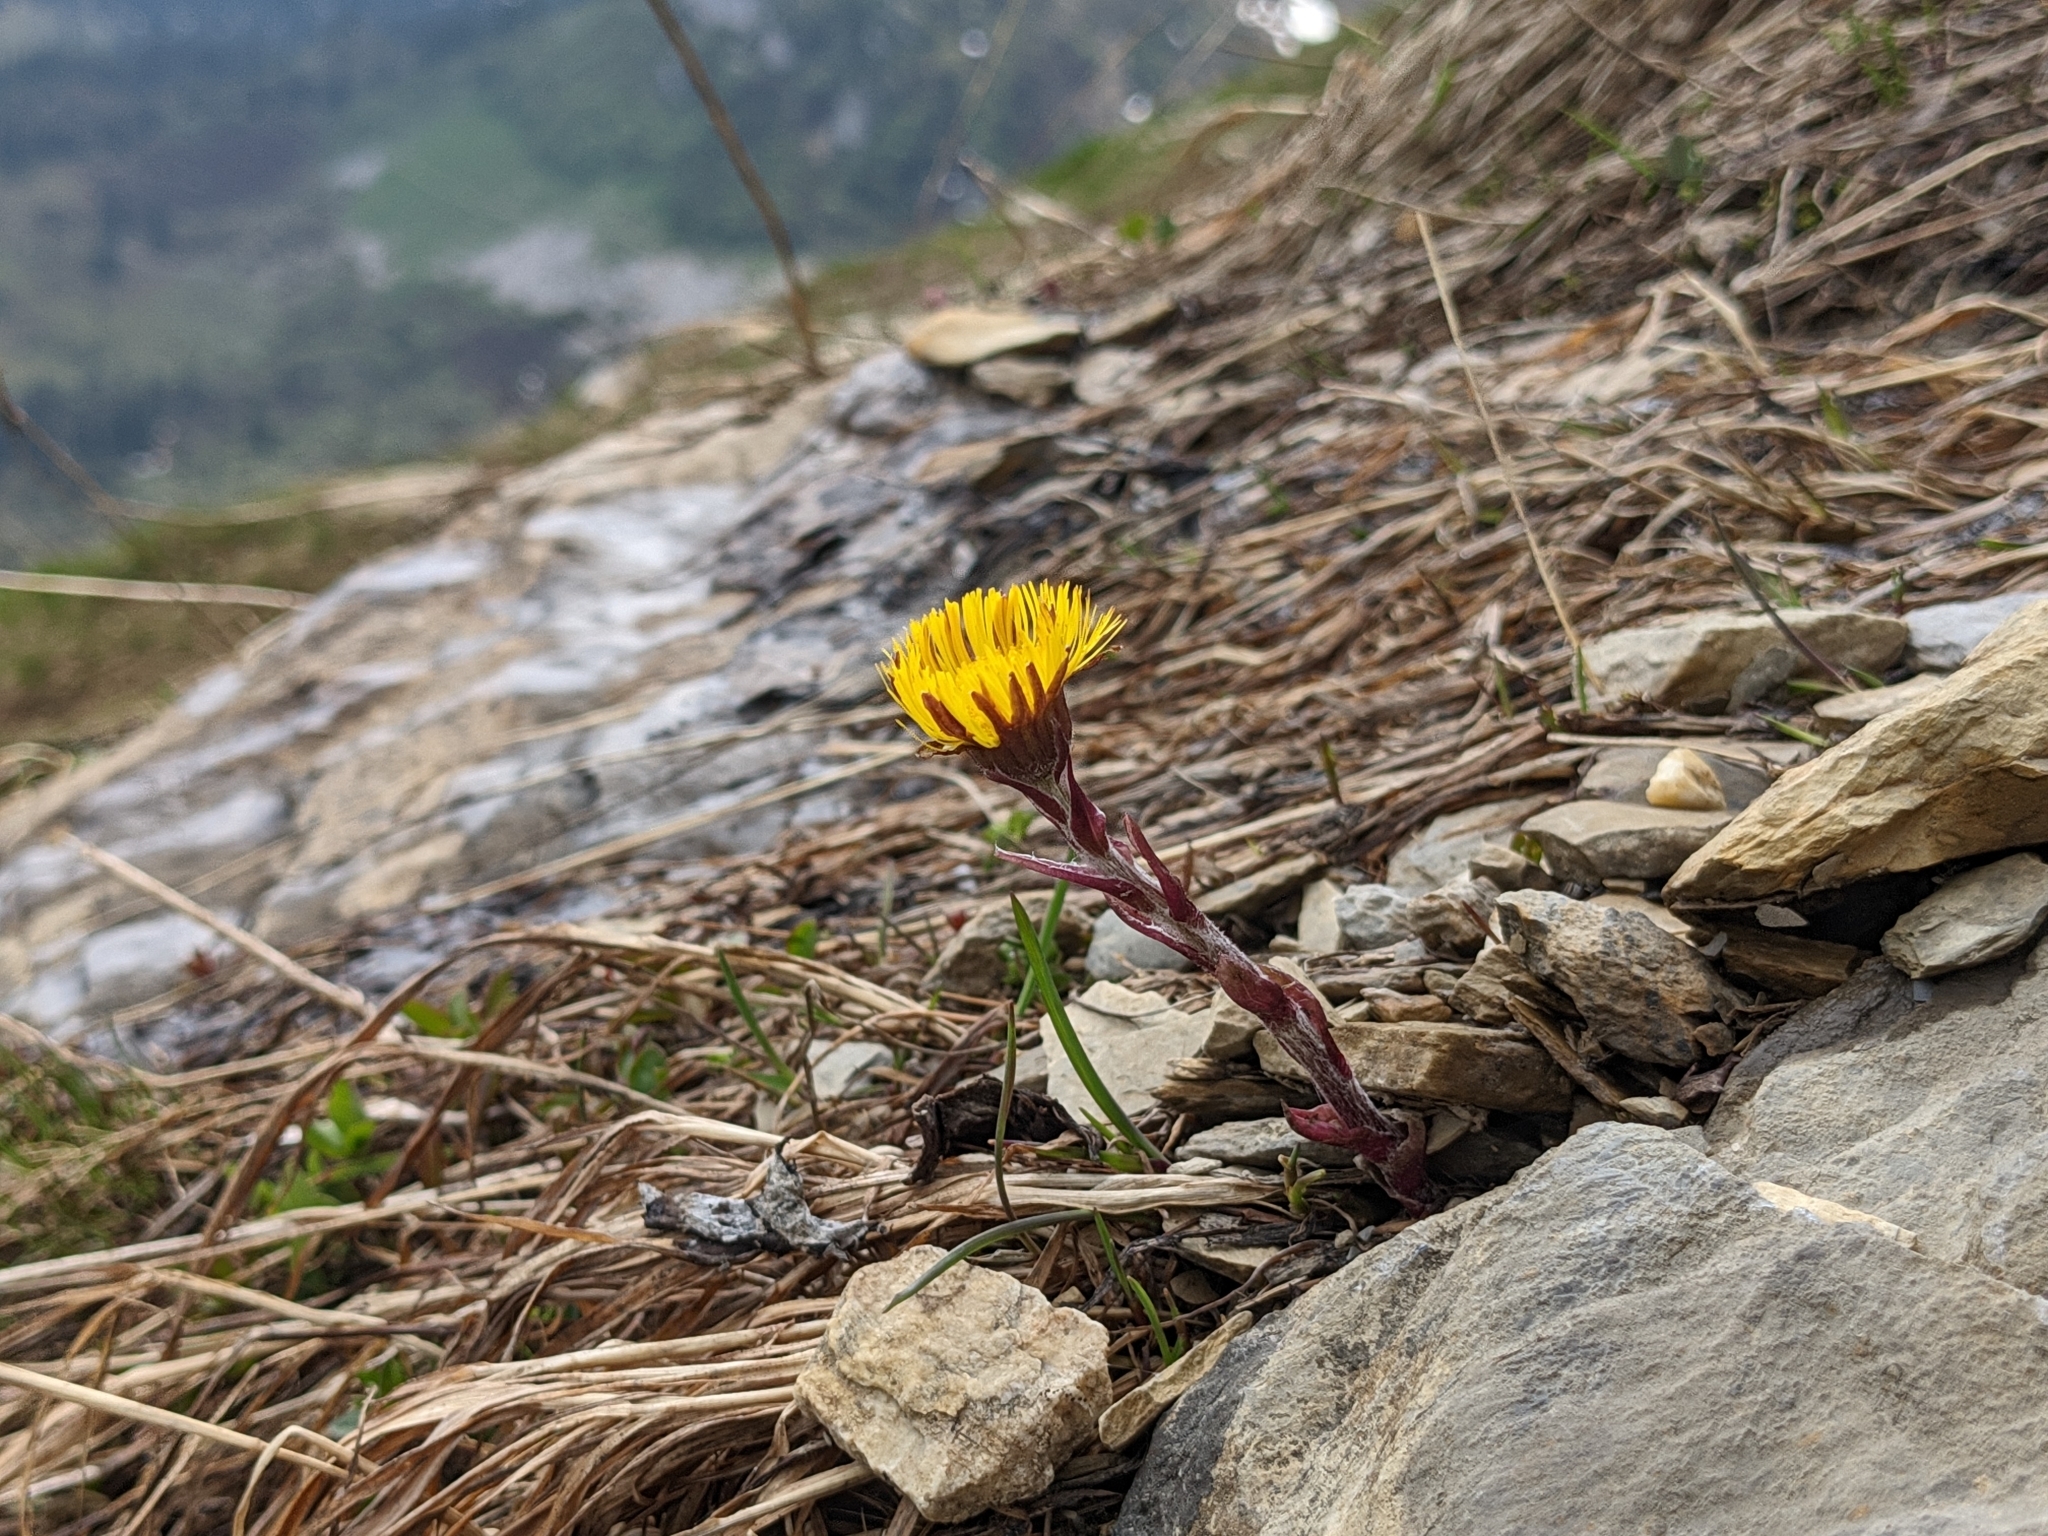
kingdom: Plantae
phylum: Tracheophyta
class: Magnoliopsida
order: Asterales
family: Asteraceae
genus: Tussilago
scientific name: Tussilago farfara
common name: Coltsfoot
